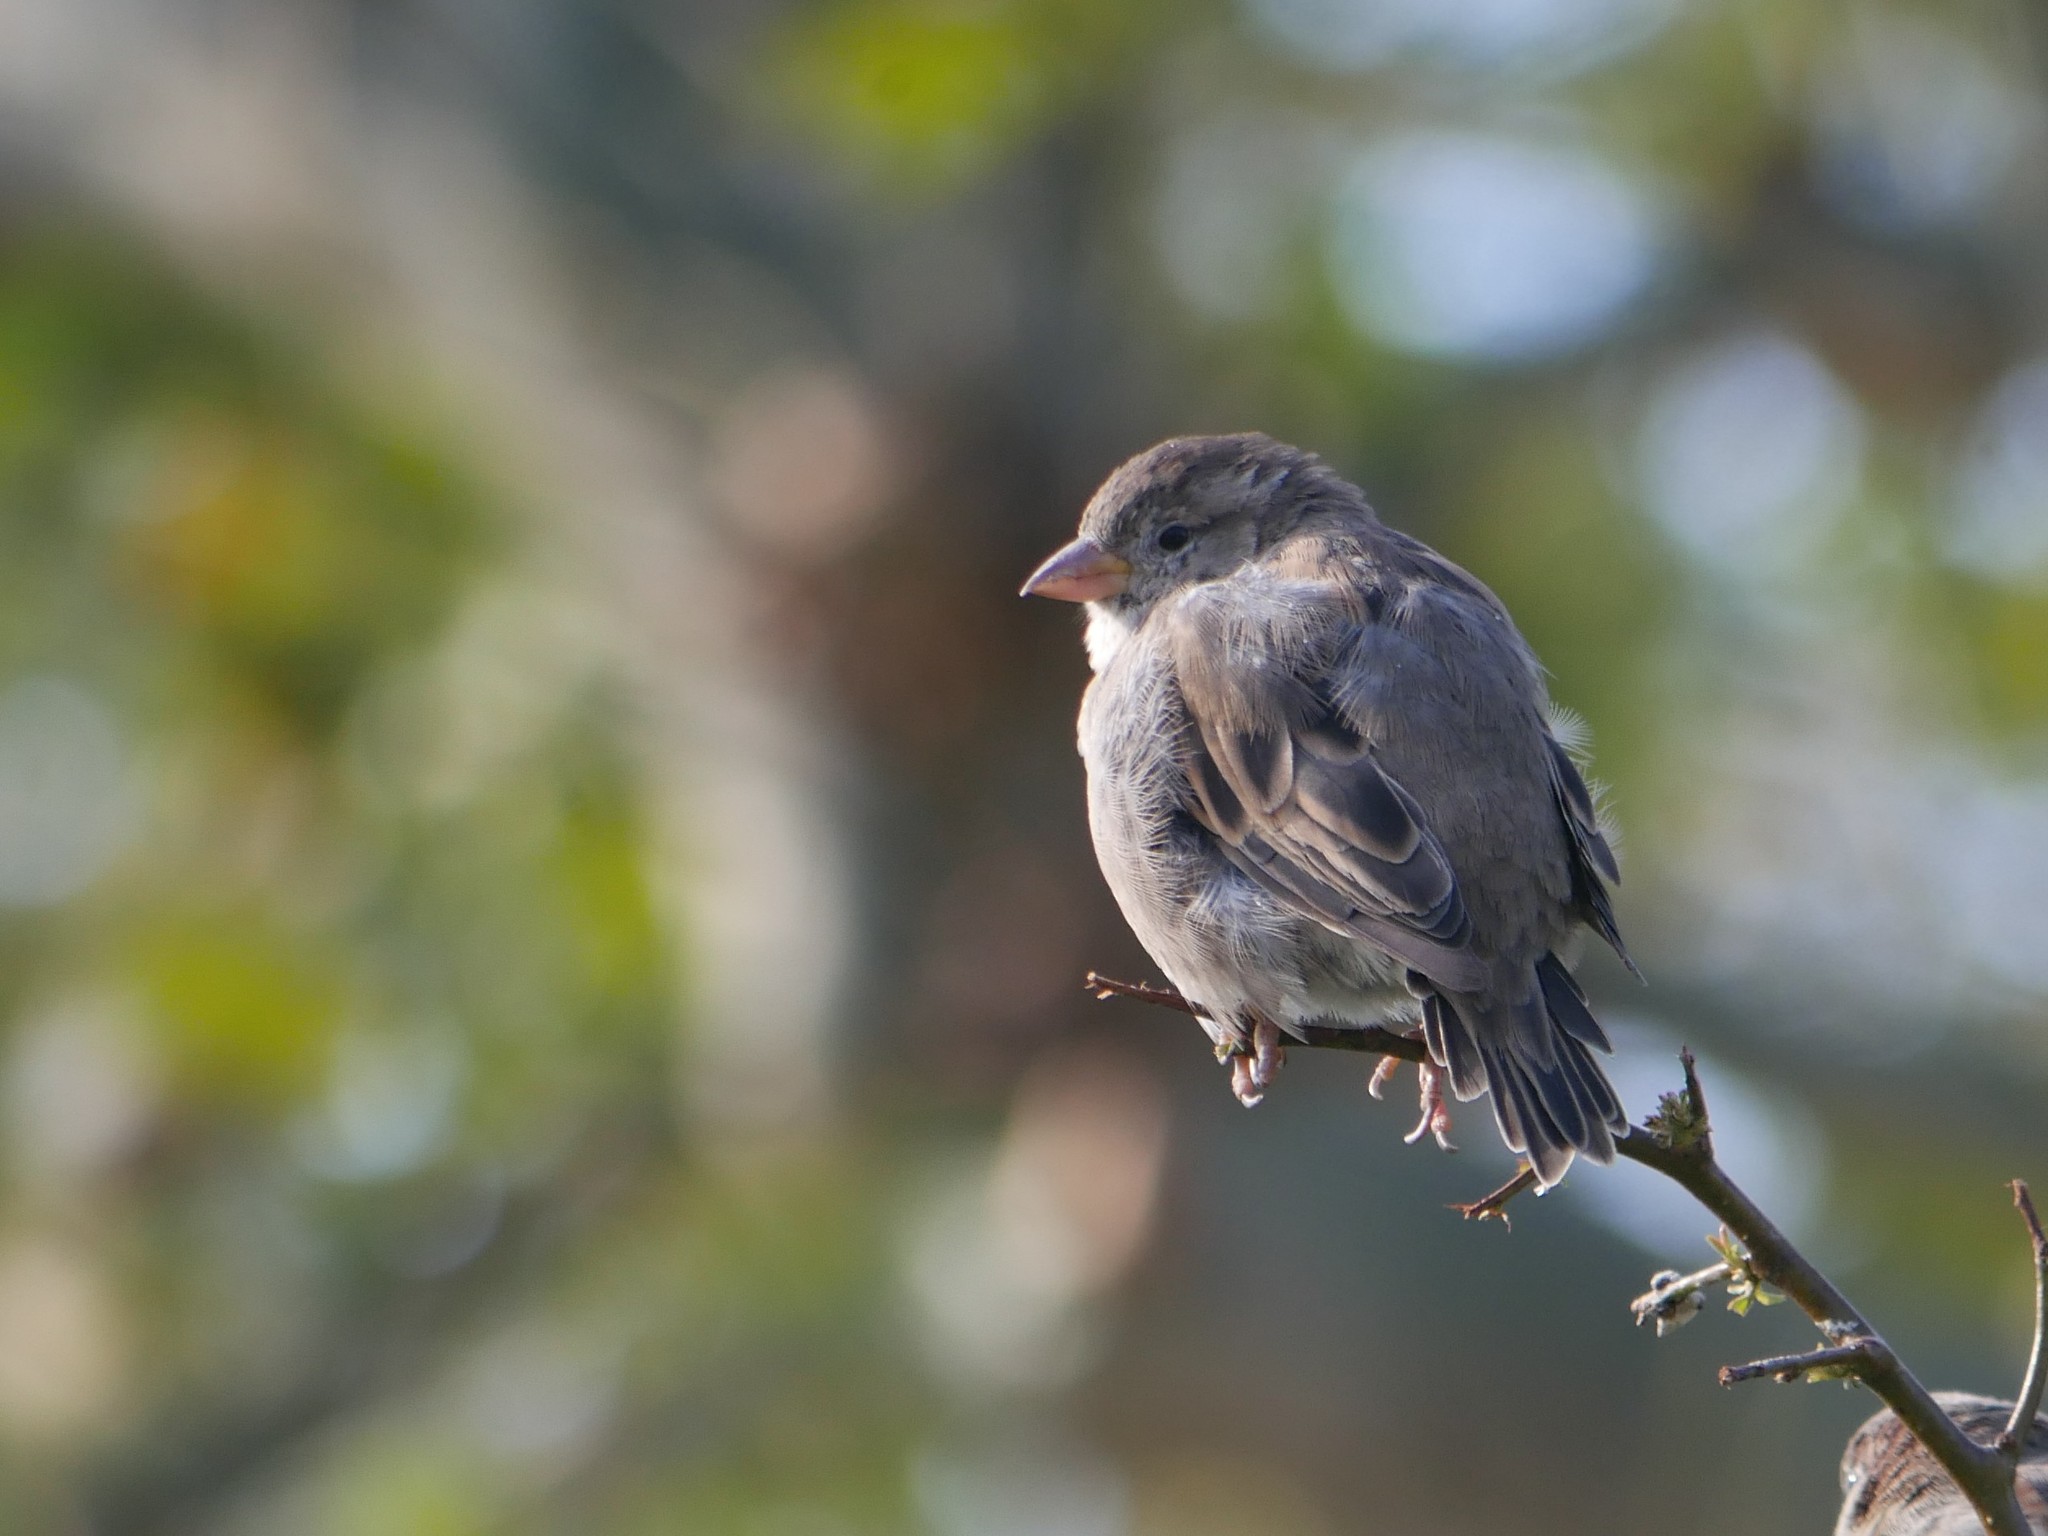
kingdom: Animalia
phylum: Chordata
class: Aves
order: Passeriformes
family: Passeridae
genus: Passer
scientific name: Passer domesticus
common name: House sparrow
